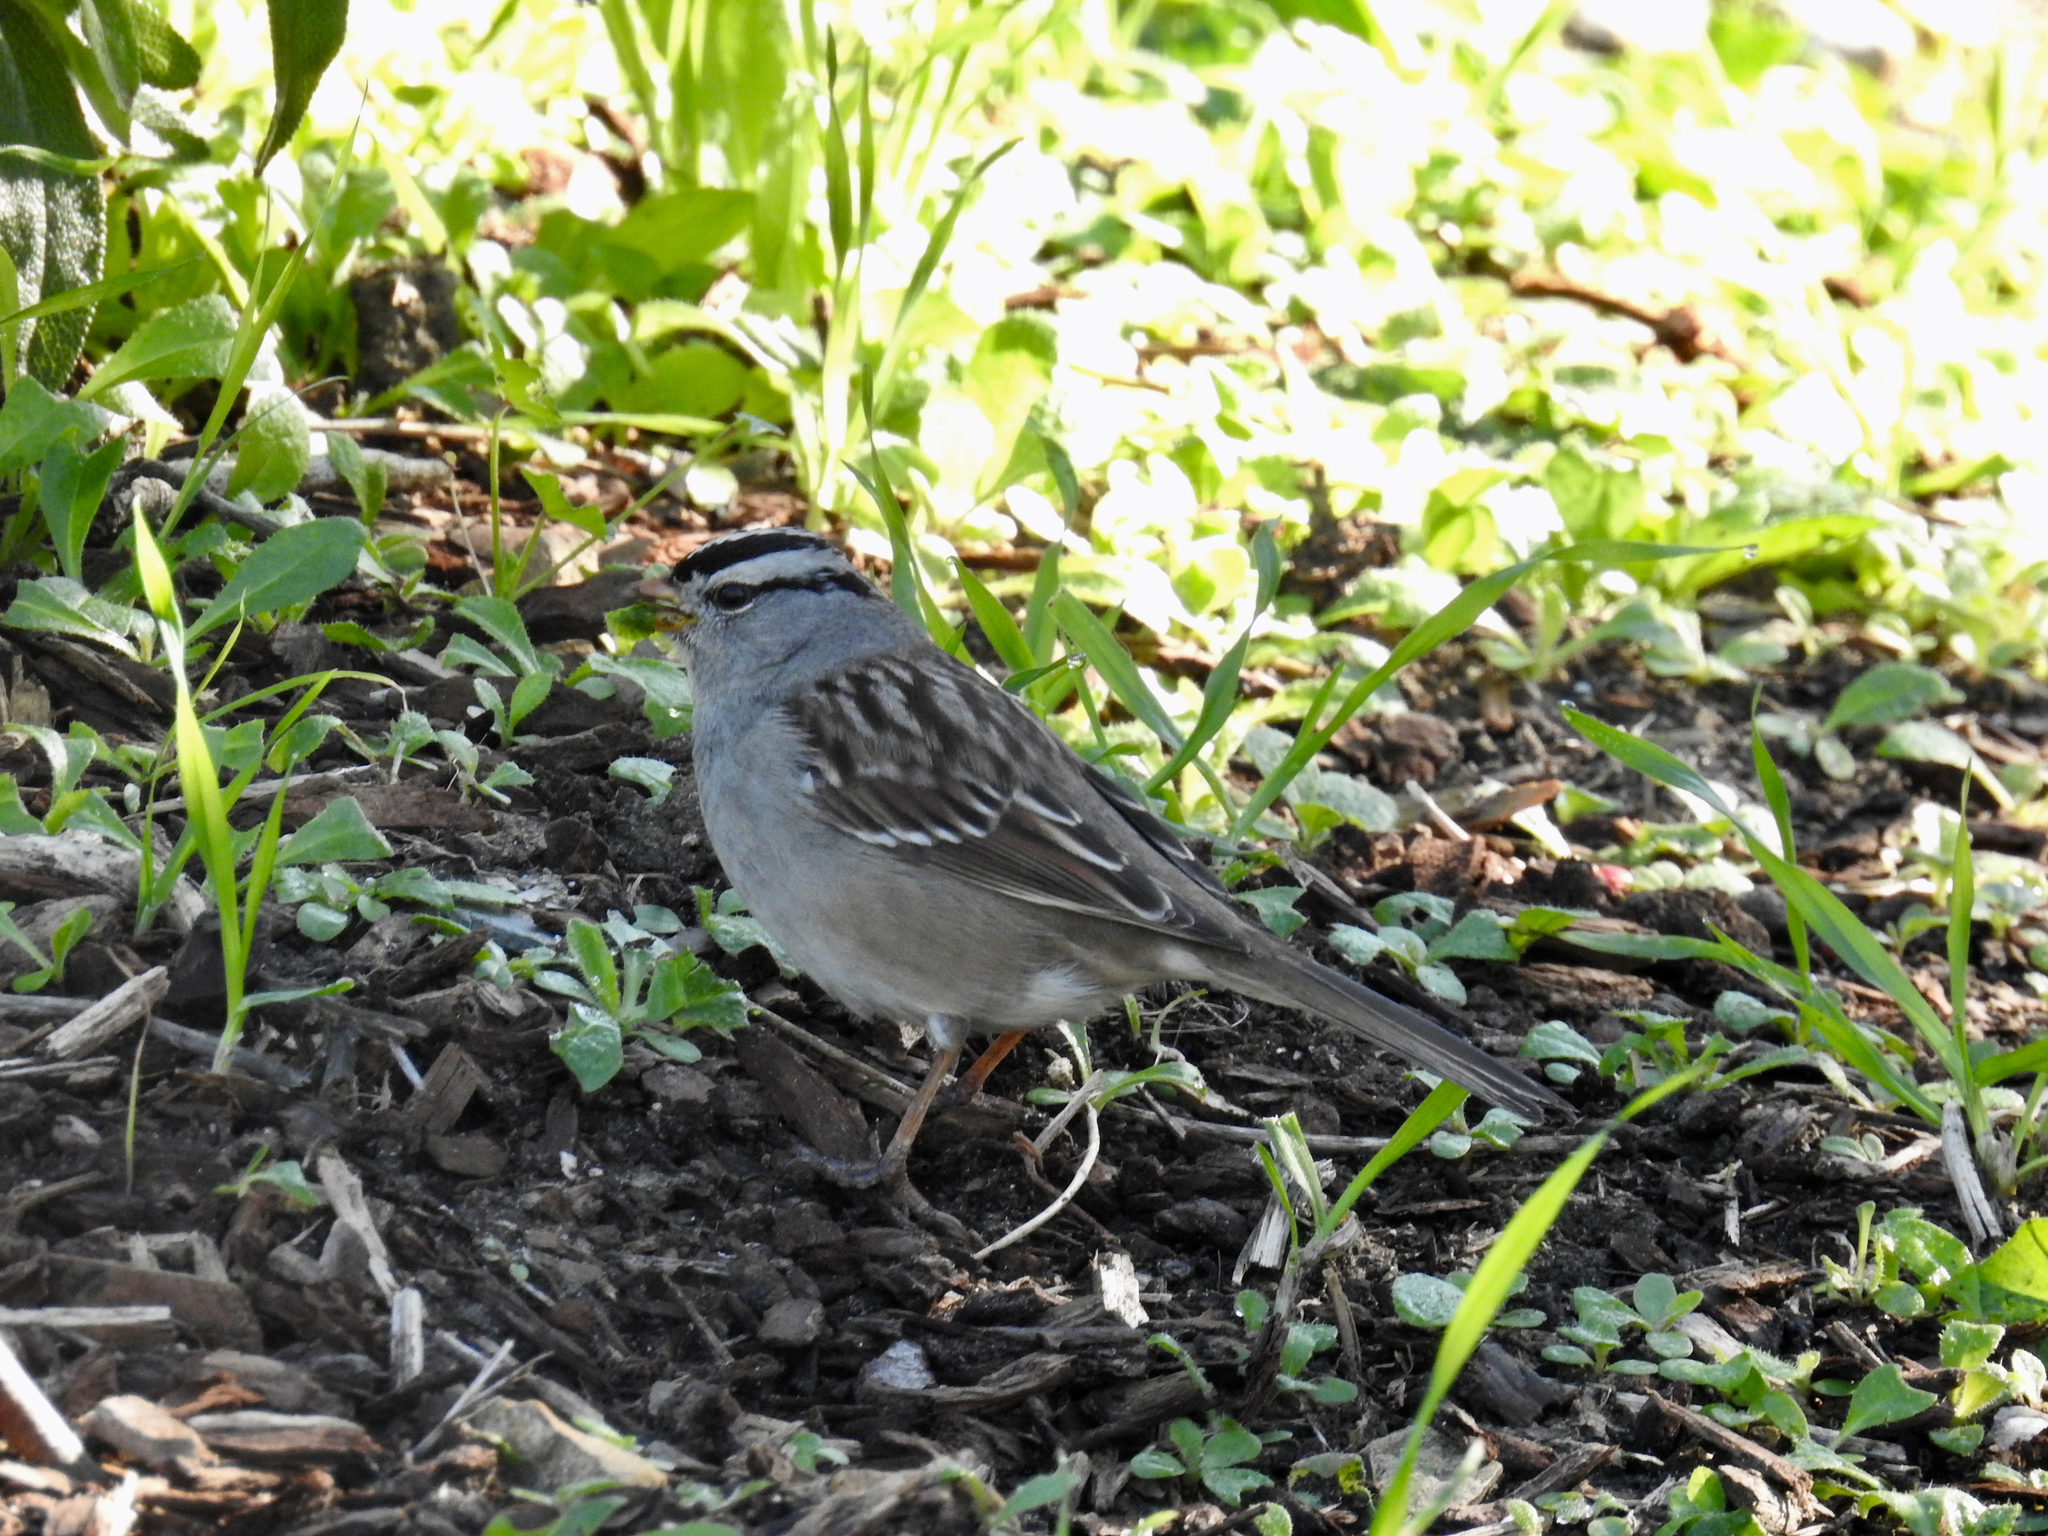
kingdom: Animalia
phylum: Chordata
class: Aves
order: Passeriformes
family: Passerellidae
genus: Zonotrichia
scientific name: Zonotrichia leucophrys
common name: White-crowned sparrow
